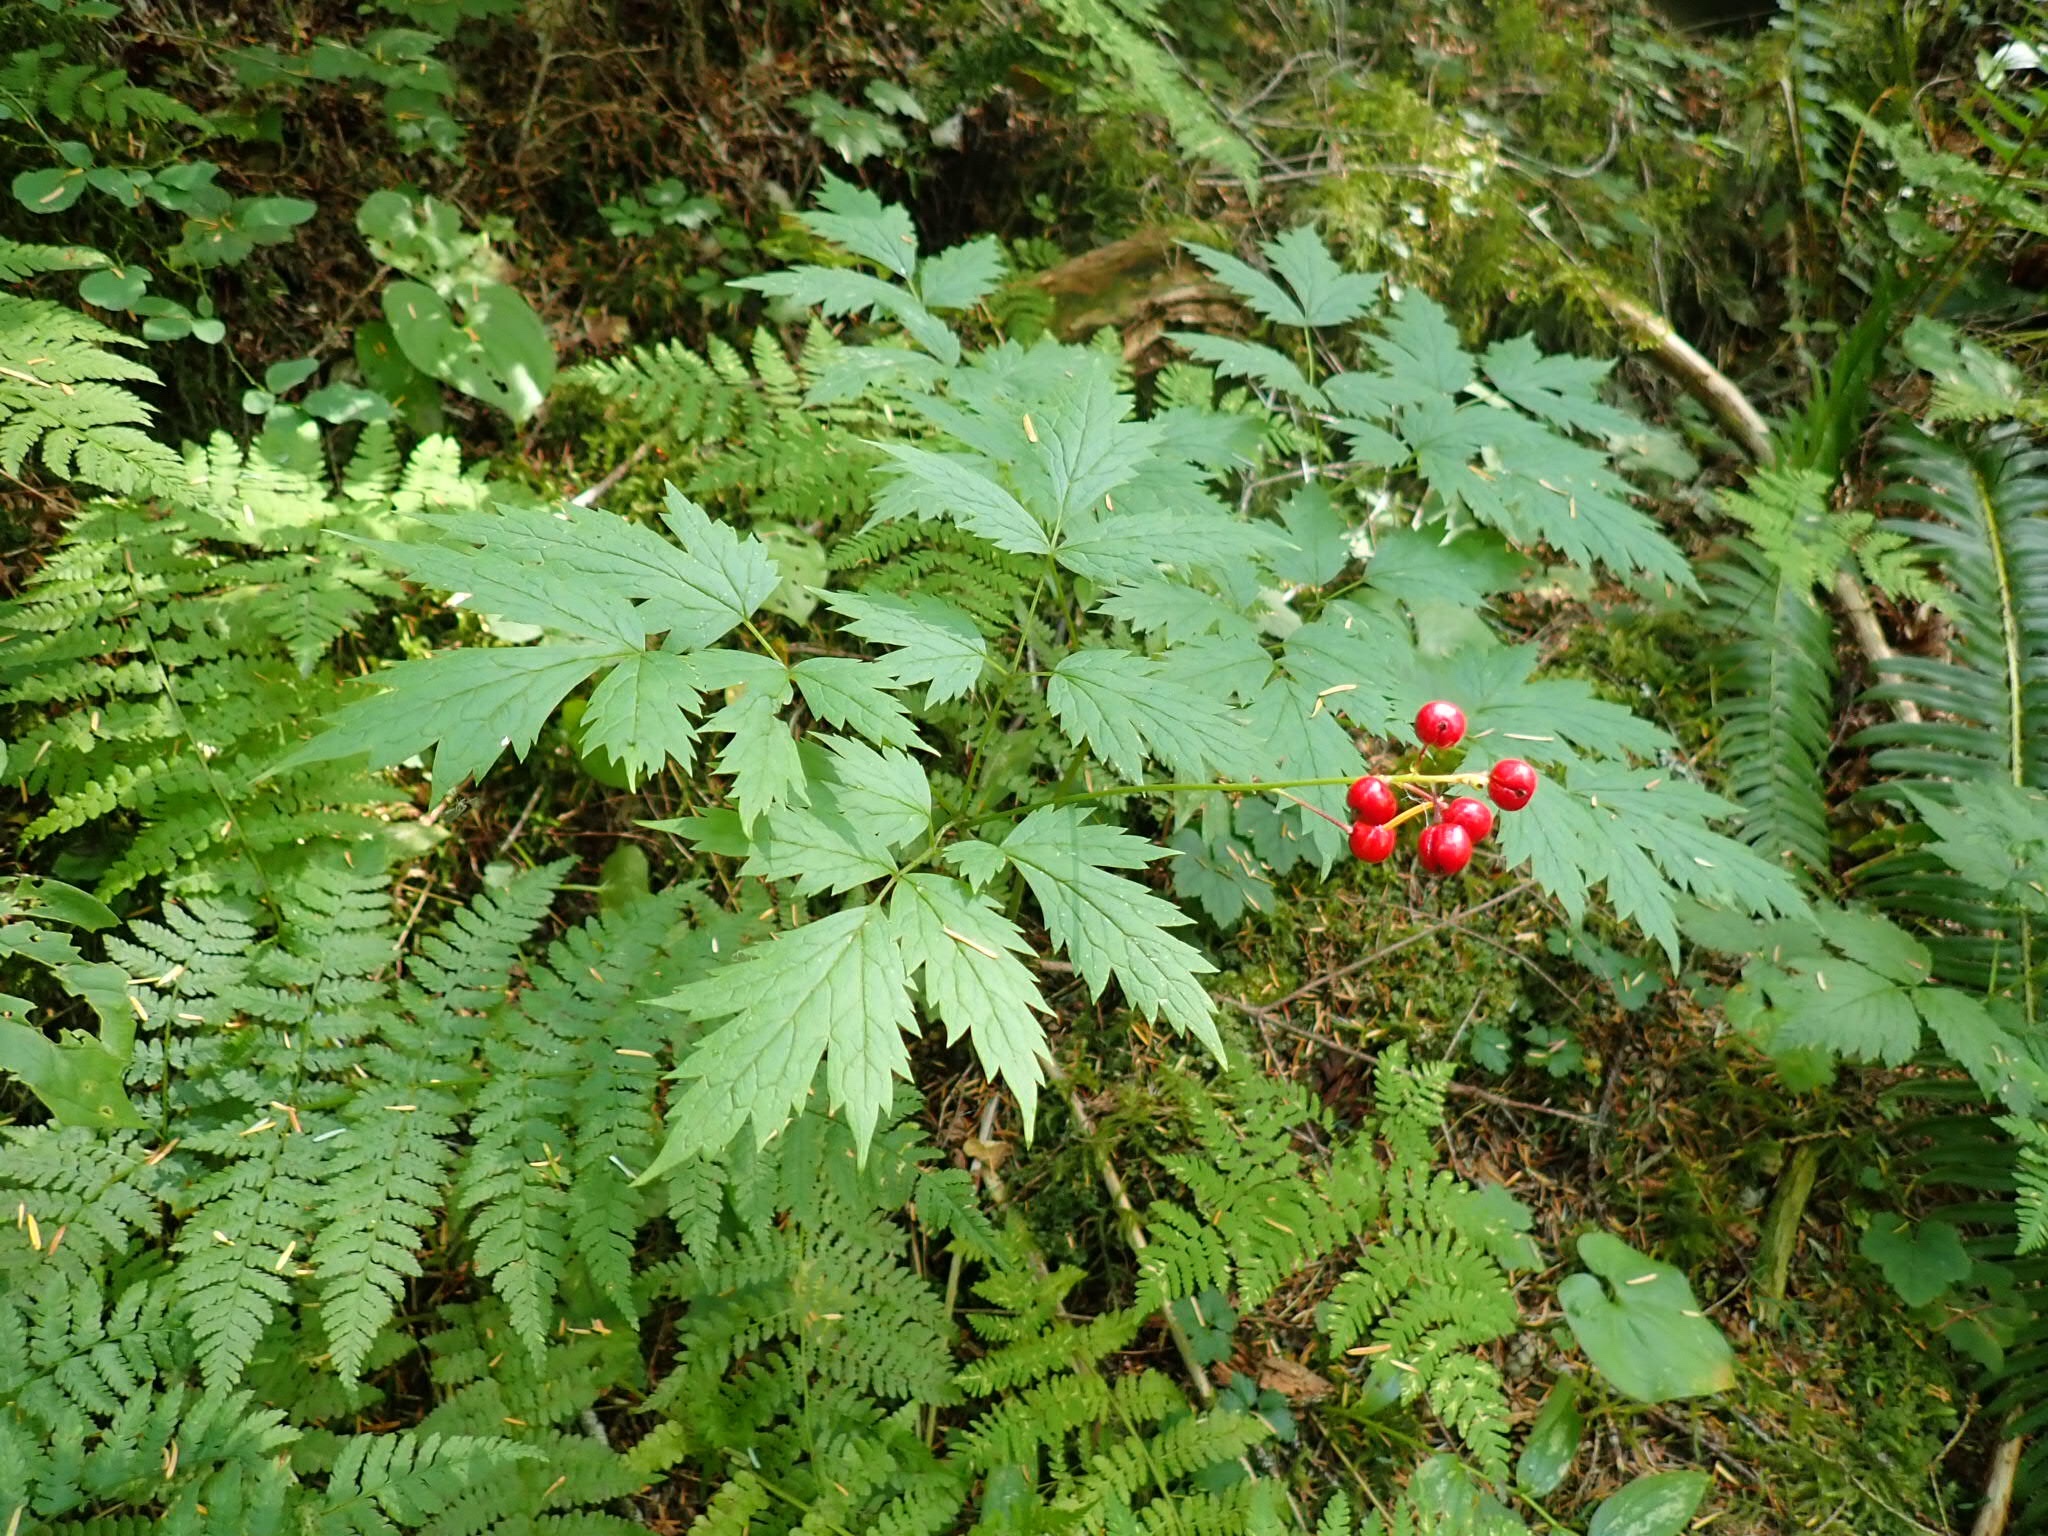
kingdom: Plantae
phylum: Tracheophyta
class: Magnoliopsida
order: Ranunculales
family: Ranunculaceae
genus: Actaea
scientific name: Actaea rubra
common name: Red baneberry
